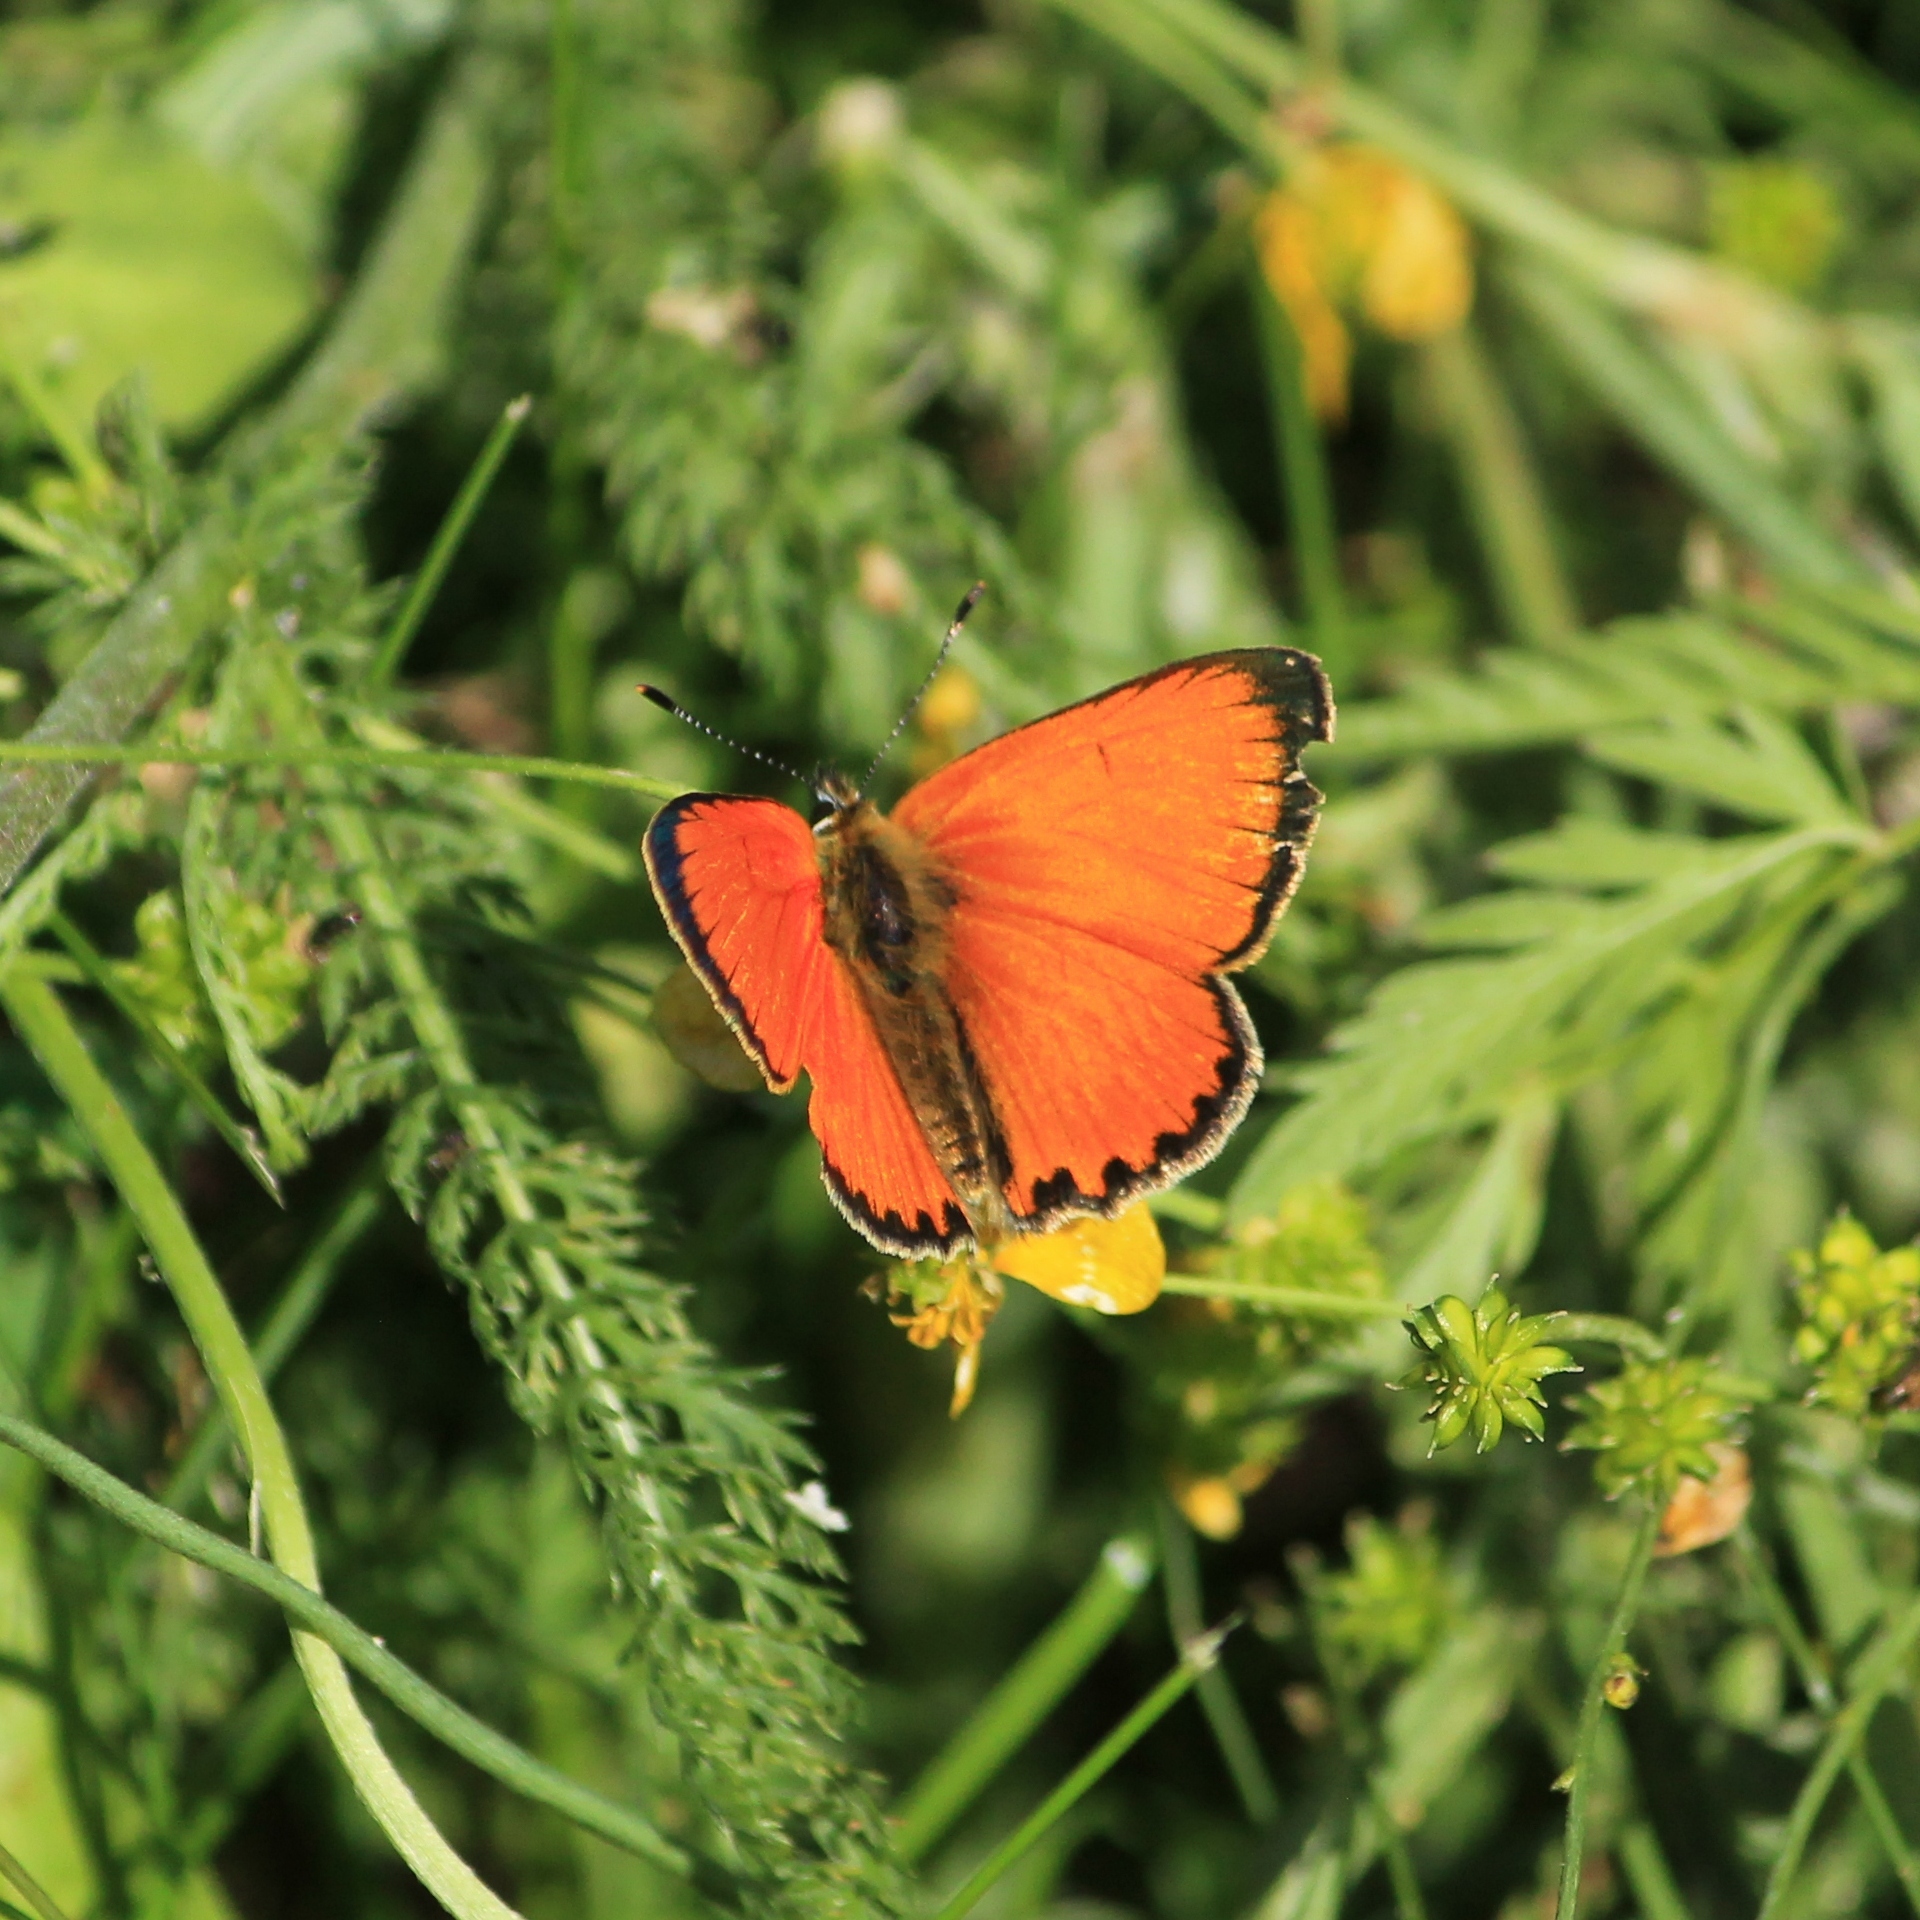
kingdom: Animalia
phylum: Arthropoda
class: Insecta
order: Lepidoptera
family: Lycaenidae
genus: Lycaena
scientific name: Lycaena virgaureae
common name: Scarce copper
